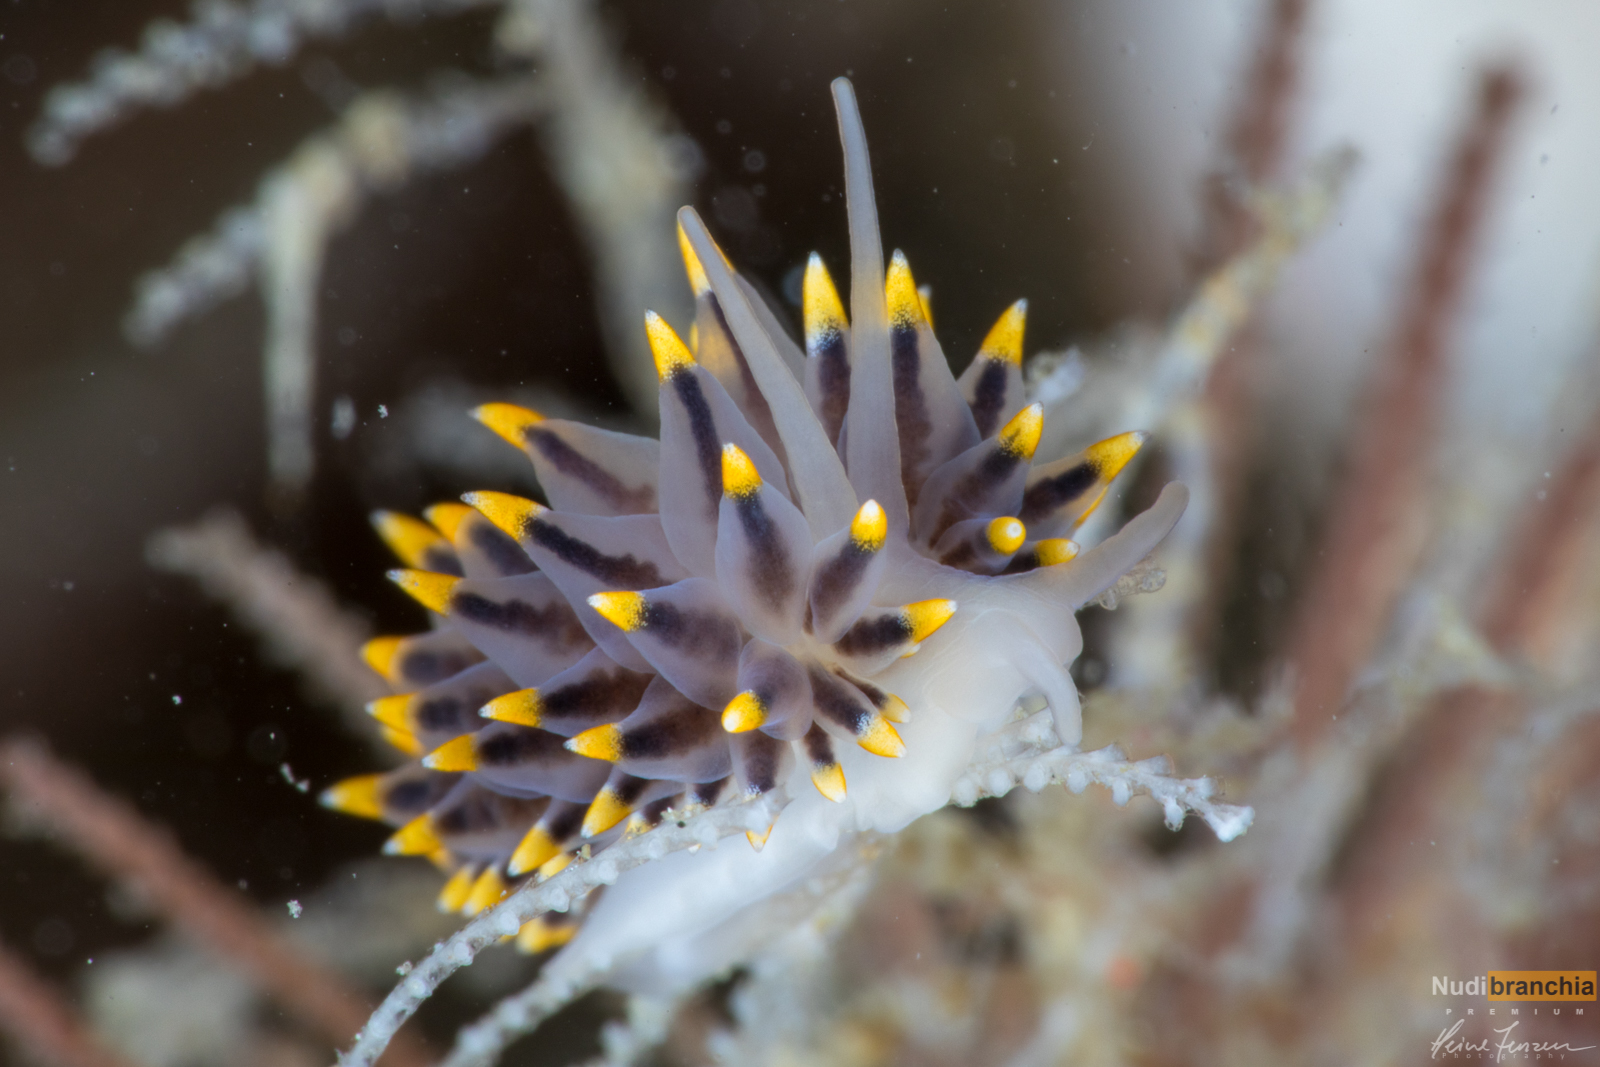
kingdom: Animalia
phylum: Mollusca
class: Gastropoda
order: Nudibranchia
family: Eubranchidae
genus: Eubranchus
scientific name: Eubranchus tricolor
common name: Painted balloon aeolis
